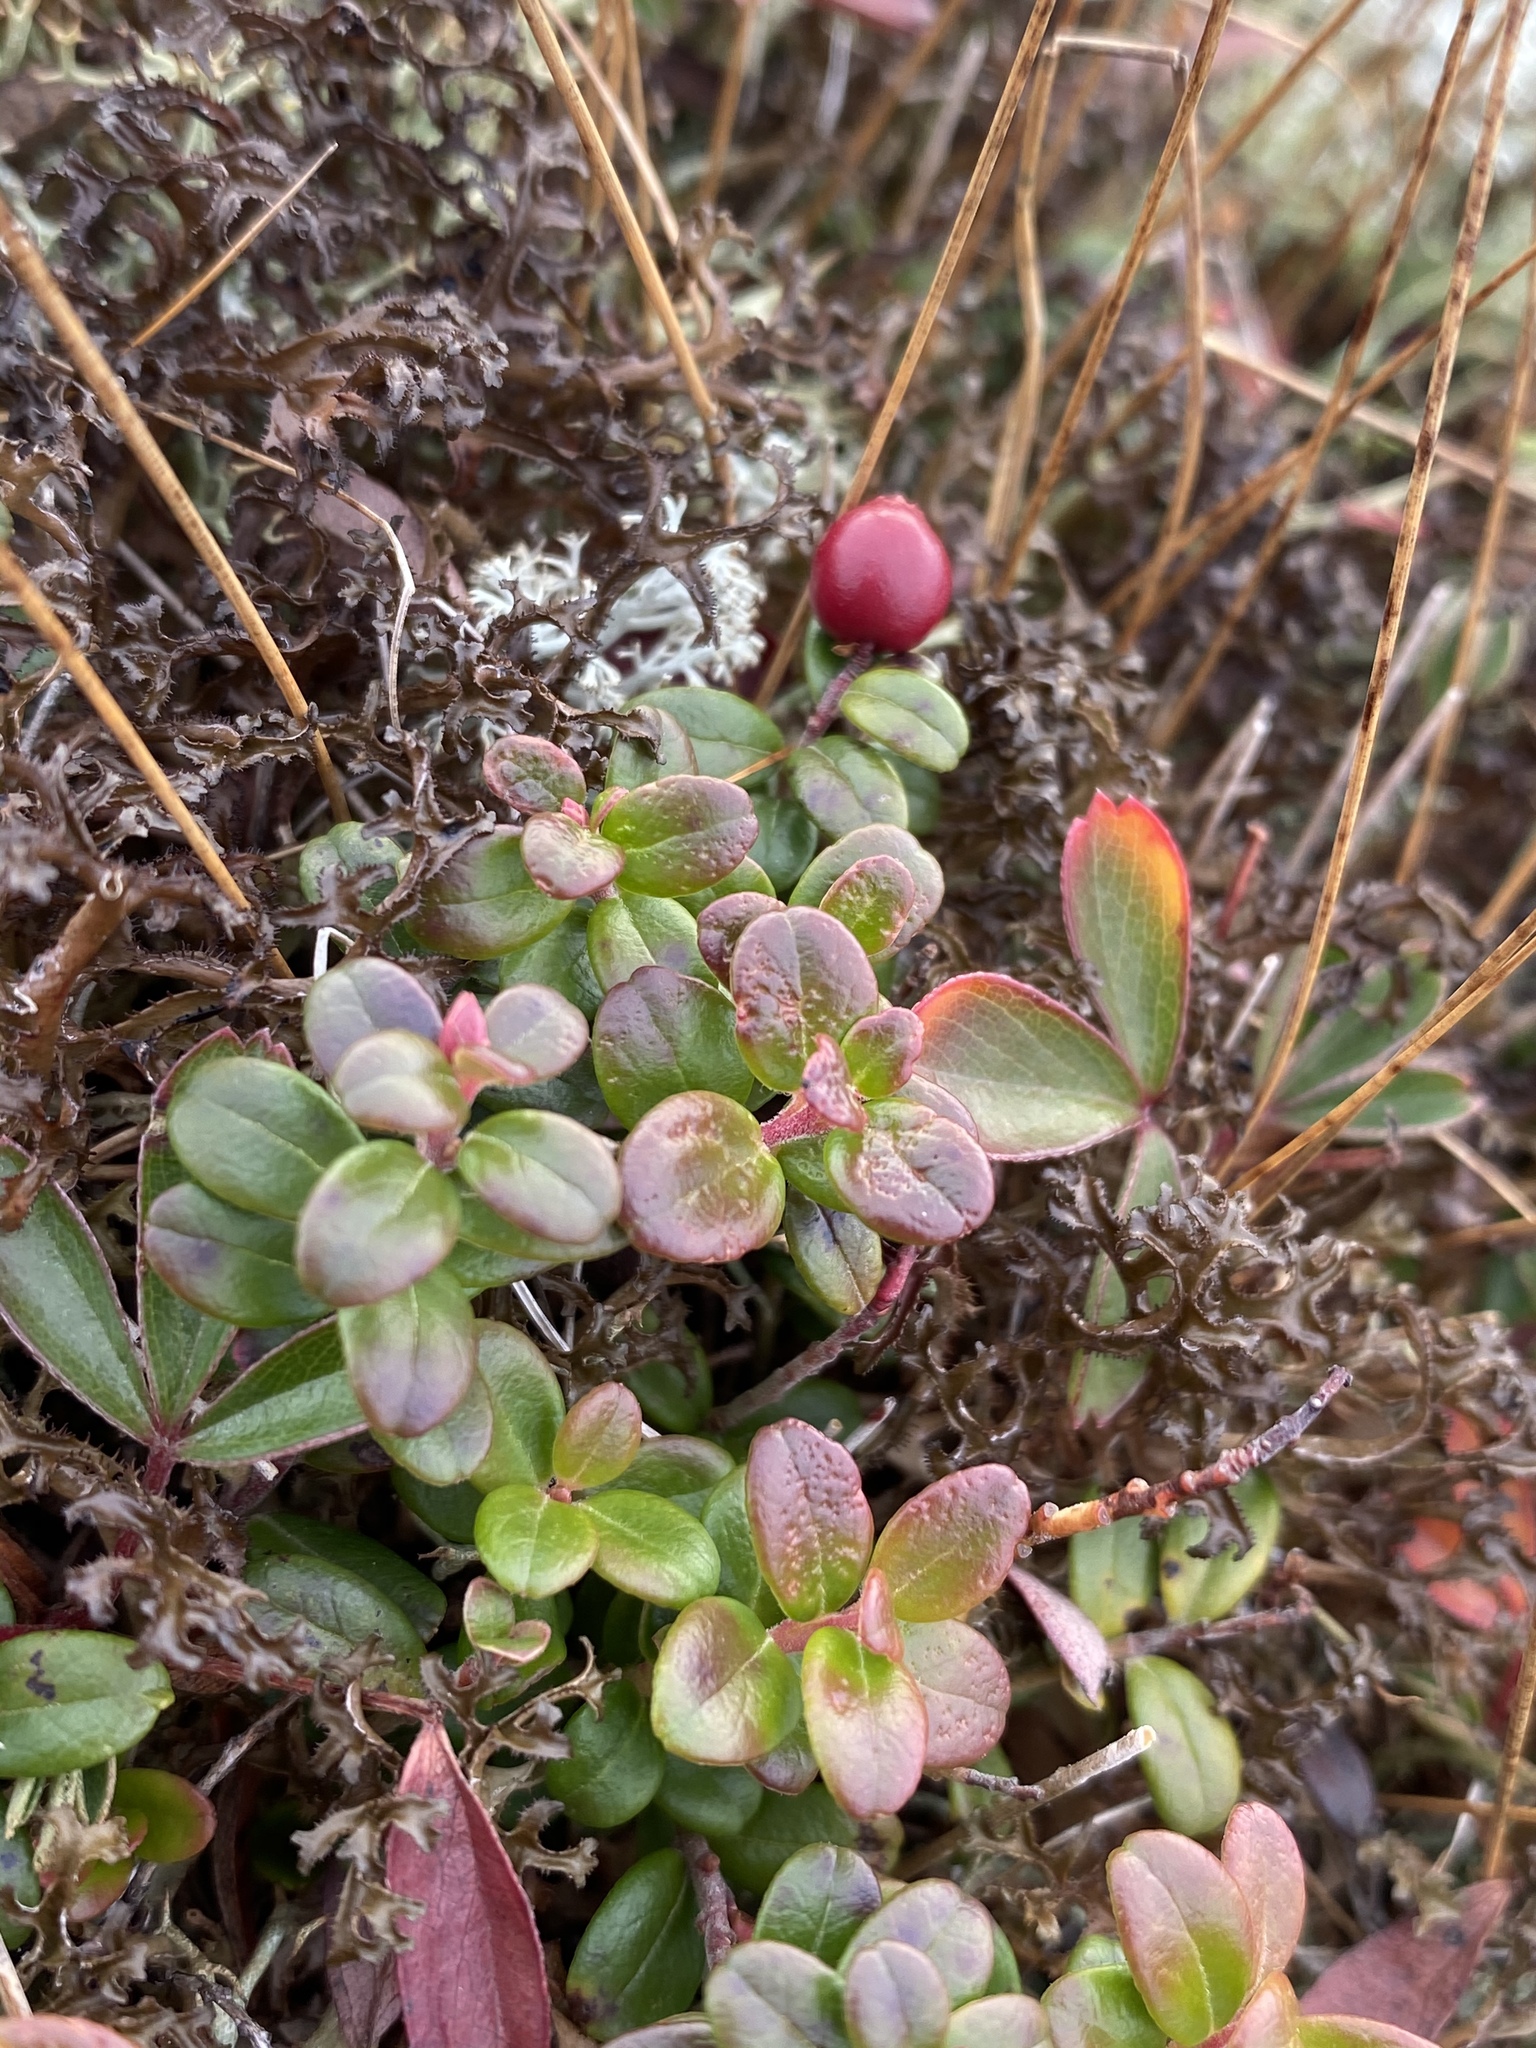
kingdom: Plantae
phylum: Tracheophyta
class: Magnoliopsida
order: Ericales
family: Ericaceae
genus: Vaccinium
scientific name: Vaccinium vitis-idaea
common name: Cowberry
